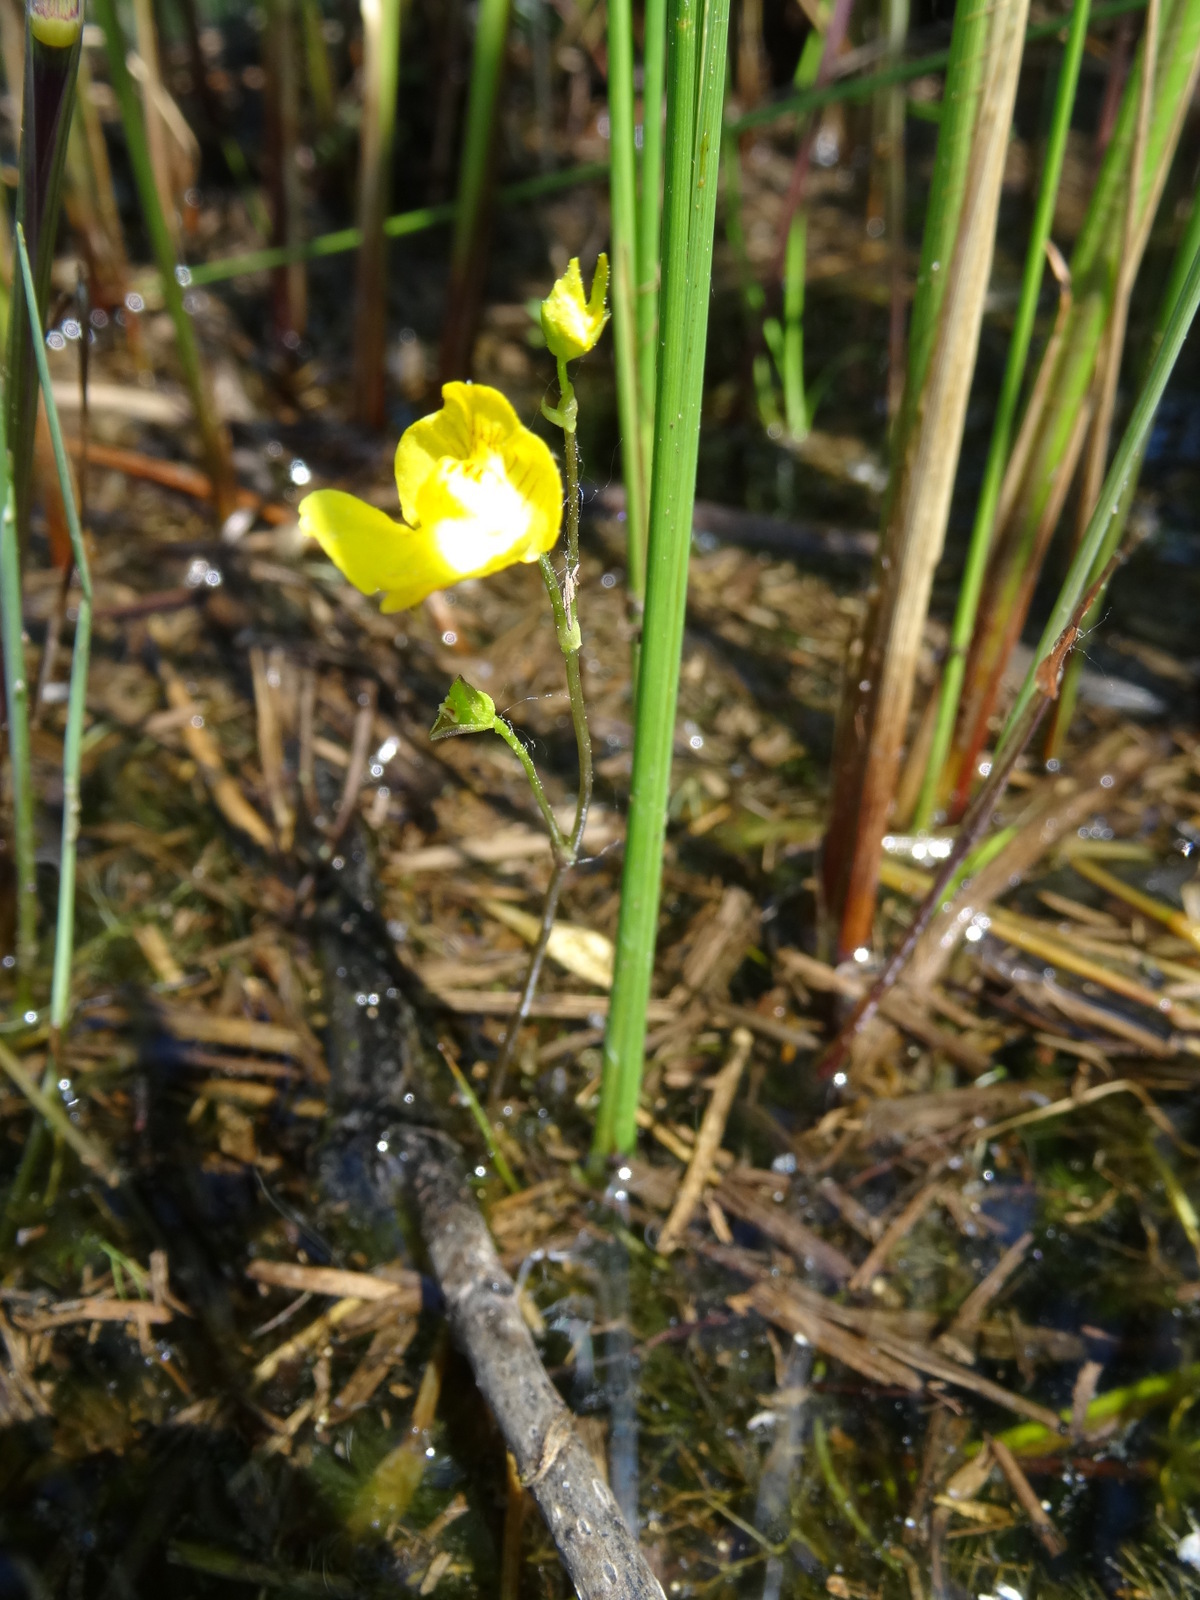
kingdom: Plantae
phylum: Tracheophyta
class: Magnoliopsida
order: Lamiales
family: Lentibulariaceae
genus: Utricularia
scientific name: Utricularia intermedia
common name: Intermediate bladderwort
